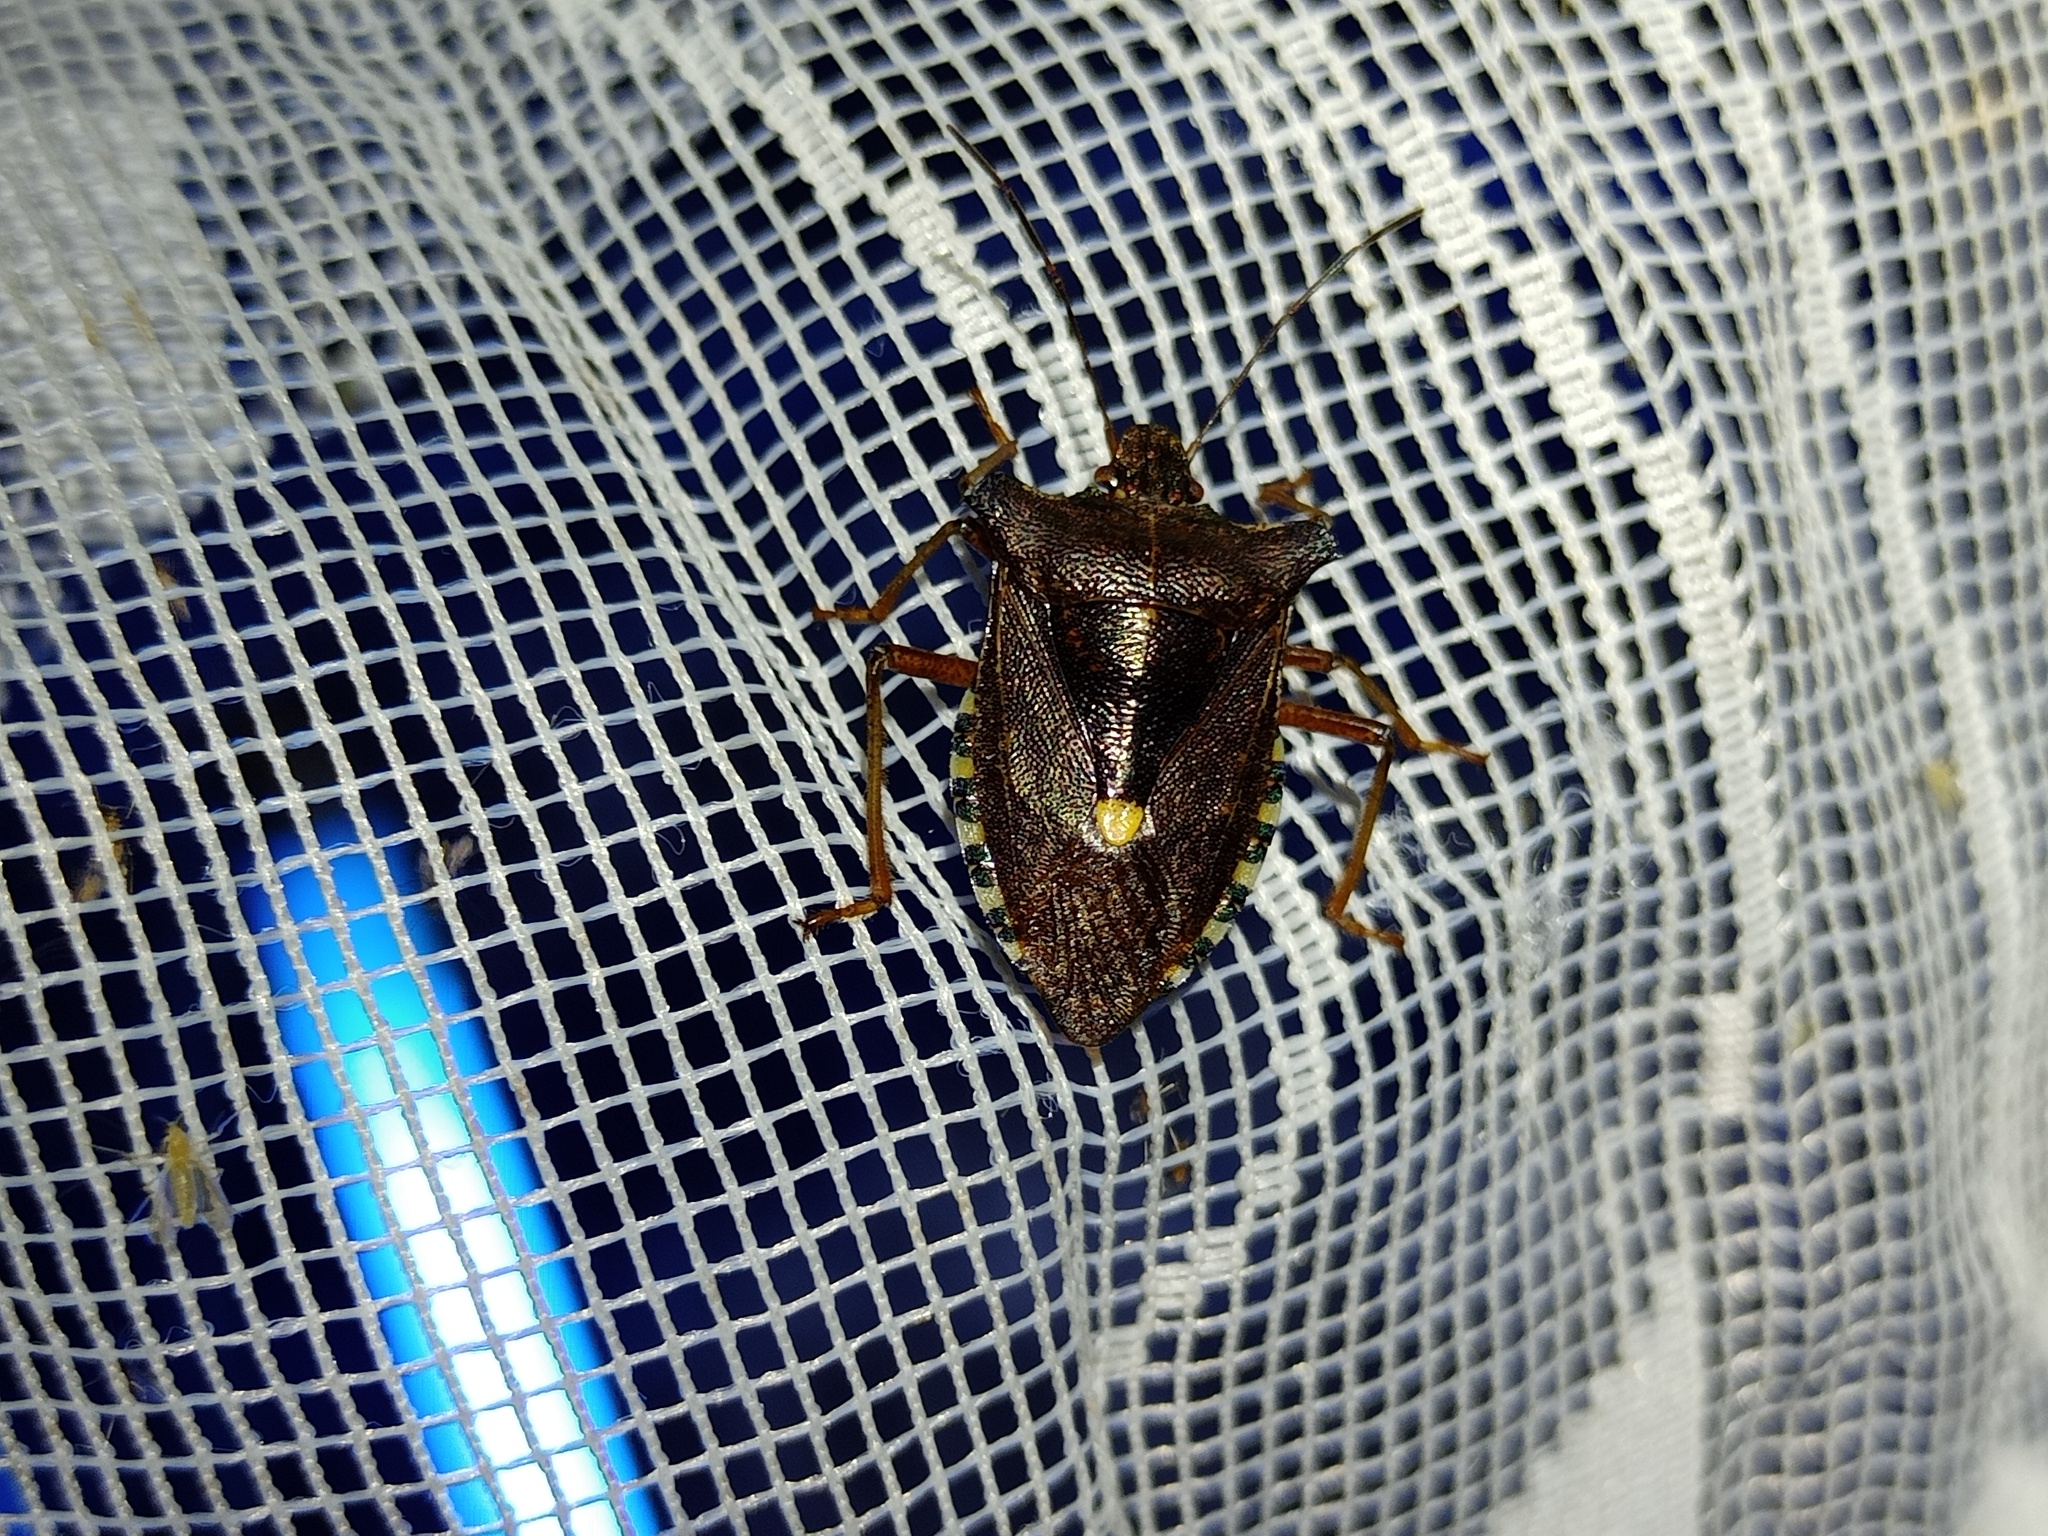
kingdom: Animalia
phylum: Arthropoda
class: Insecta
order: Hemiptera
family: Pentatomidae
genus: Pentatoma
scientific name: Pentatoma rufipes
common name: Forest bug
